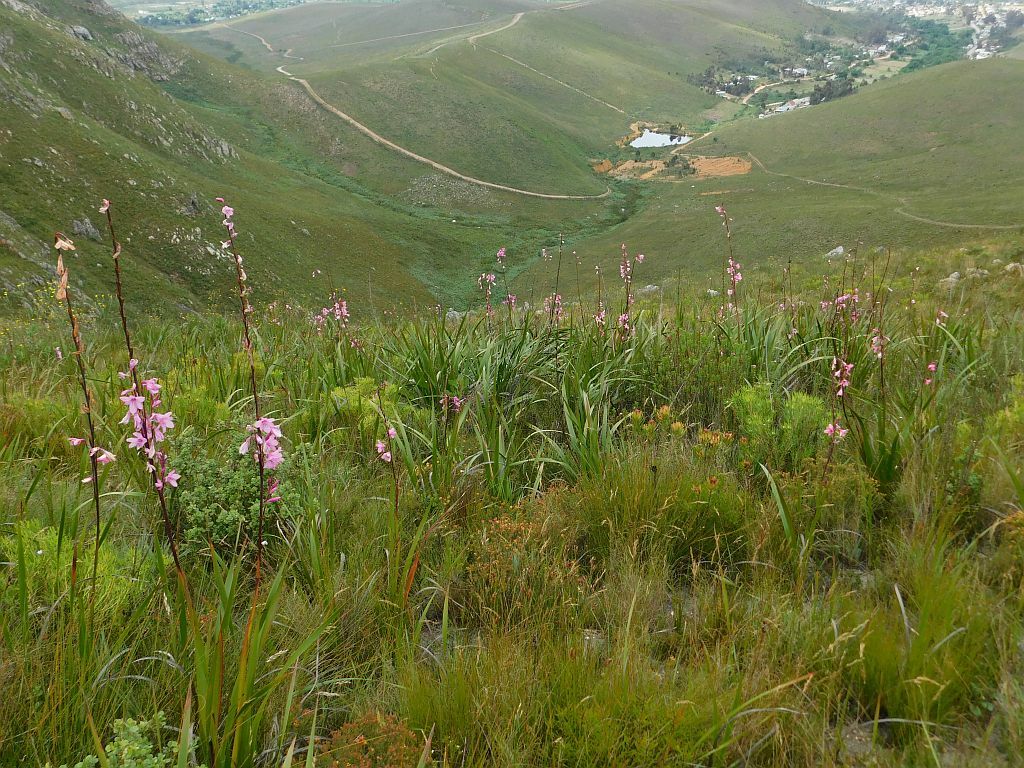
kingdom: Plantae
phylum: Tracheophyta
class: Liliopsida
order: Asparagales
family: Iridaceae
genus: Watsonia
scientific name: Watsonia borbonica
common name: Bugle-lily
